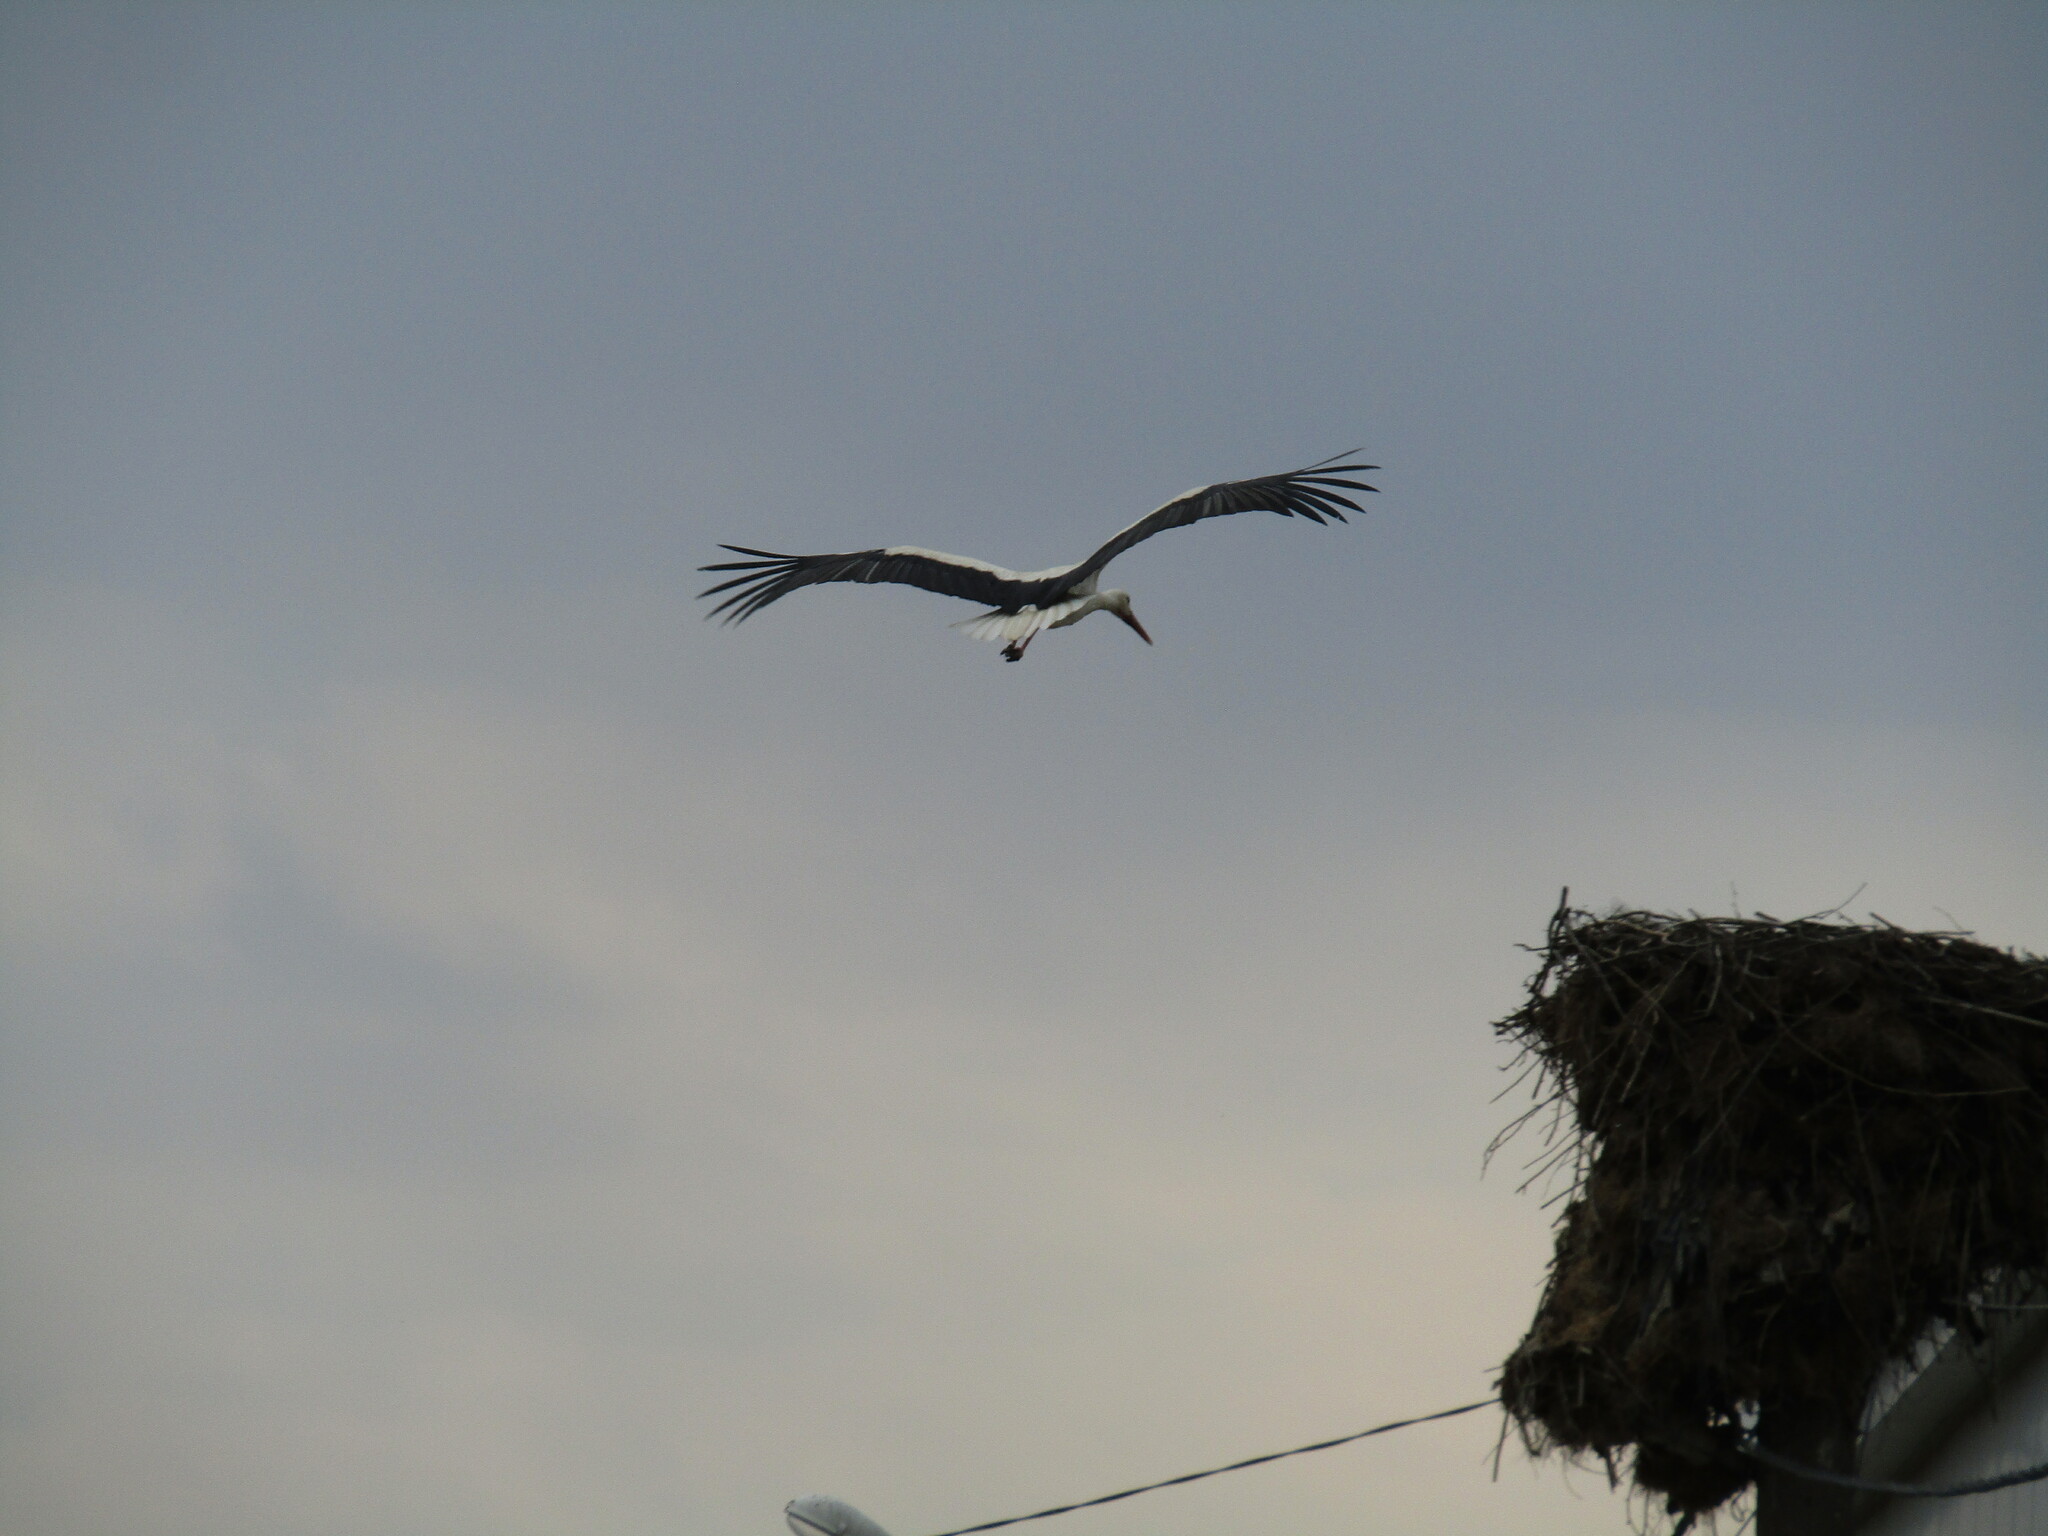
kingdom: Animalia
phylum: Chordata
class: Aves
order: Ciconiiformes
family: Ciconiidae
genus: Ciconia
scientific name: Ciconia ciconia
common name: White stork
